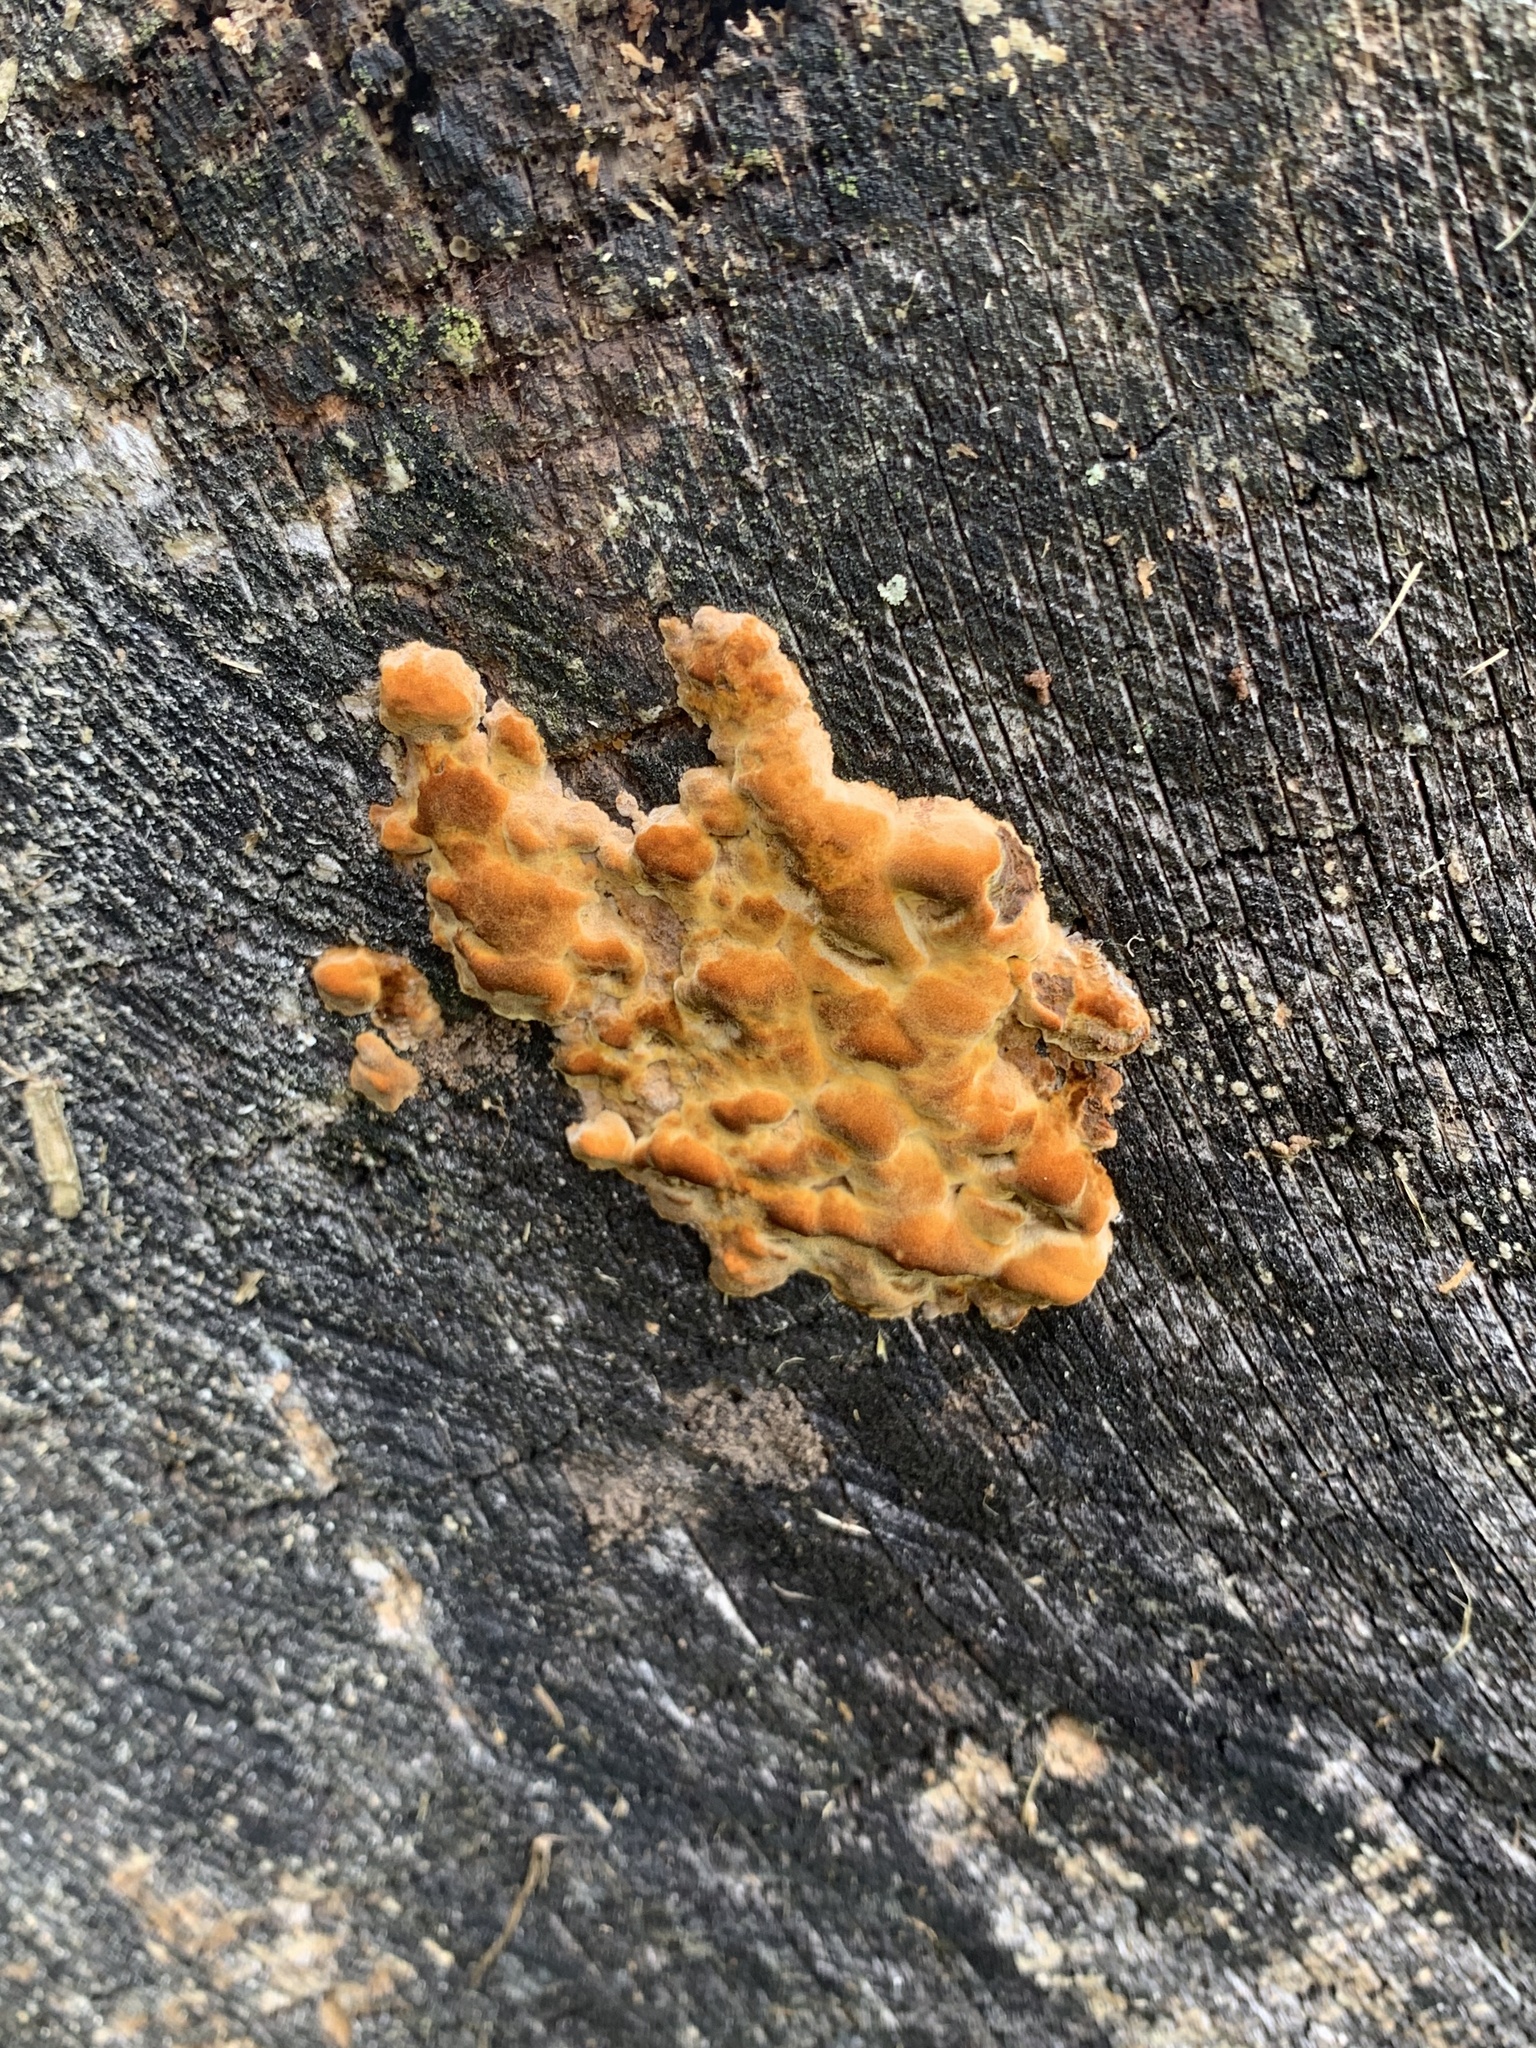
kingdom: Fungi
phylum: Basidiomycota
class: Agaricomycetes
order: Polyporales
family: Irpicaceae
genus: Ceriporia
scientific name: Ceriporia spissa
